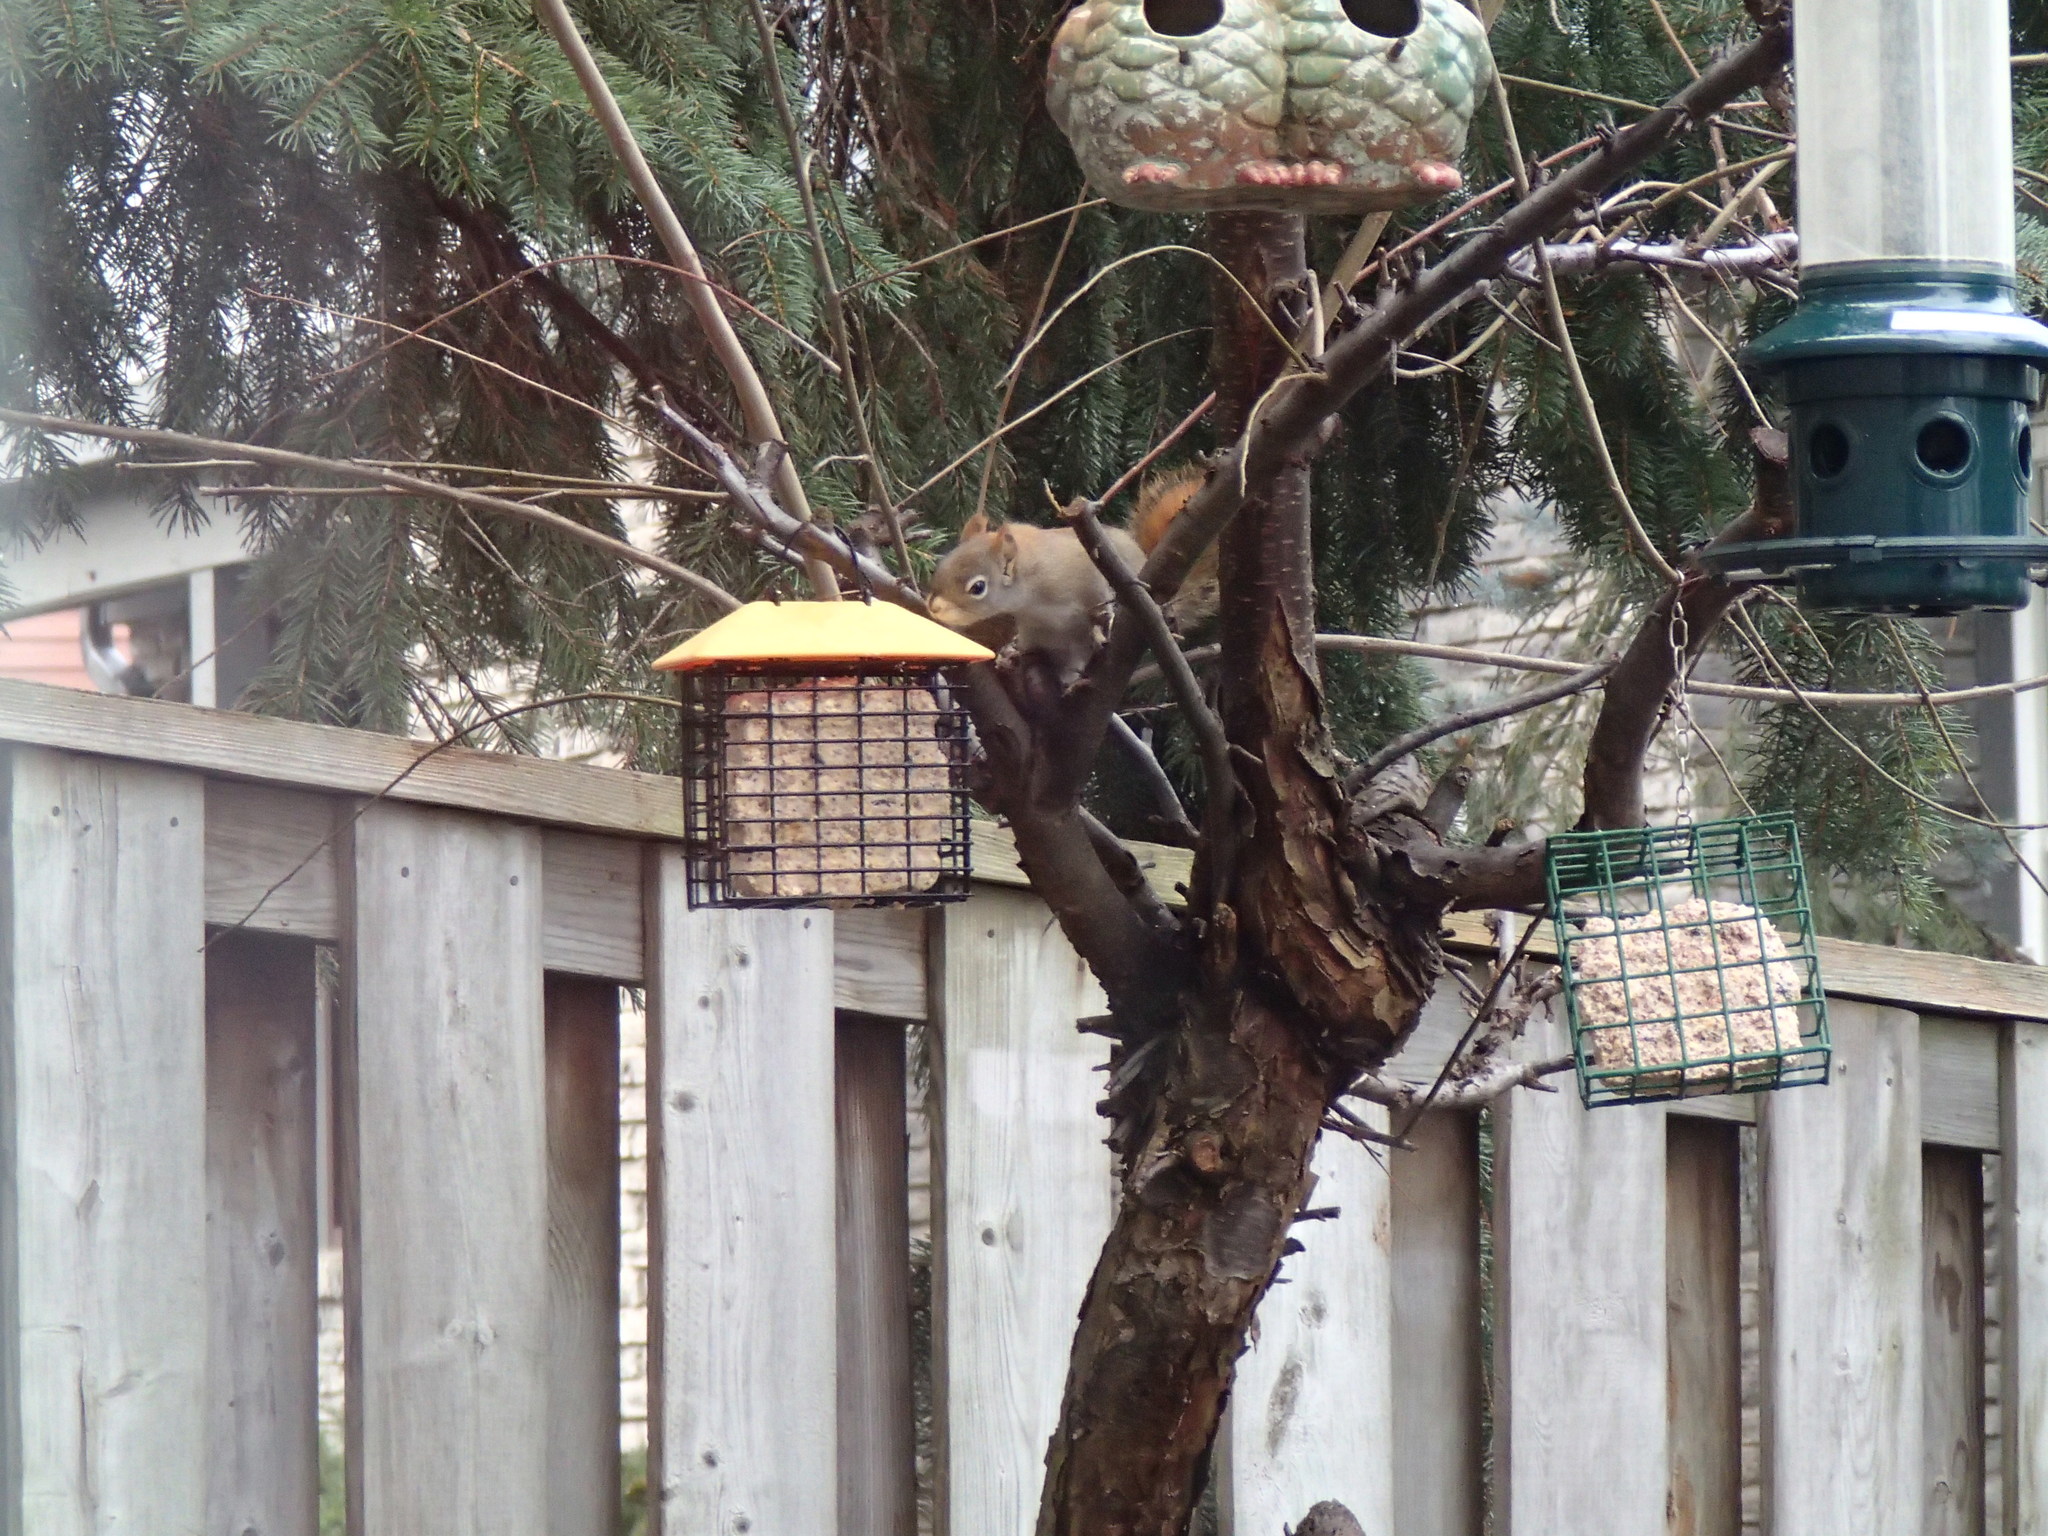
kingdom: Animalia
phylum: Chordata
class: Mammalia
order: Rodentia
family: Sciuridae
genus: Tamiasciurus
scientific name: Tamiasciurus hudsonicus
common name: Red squirrel
